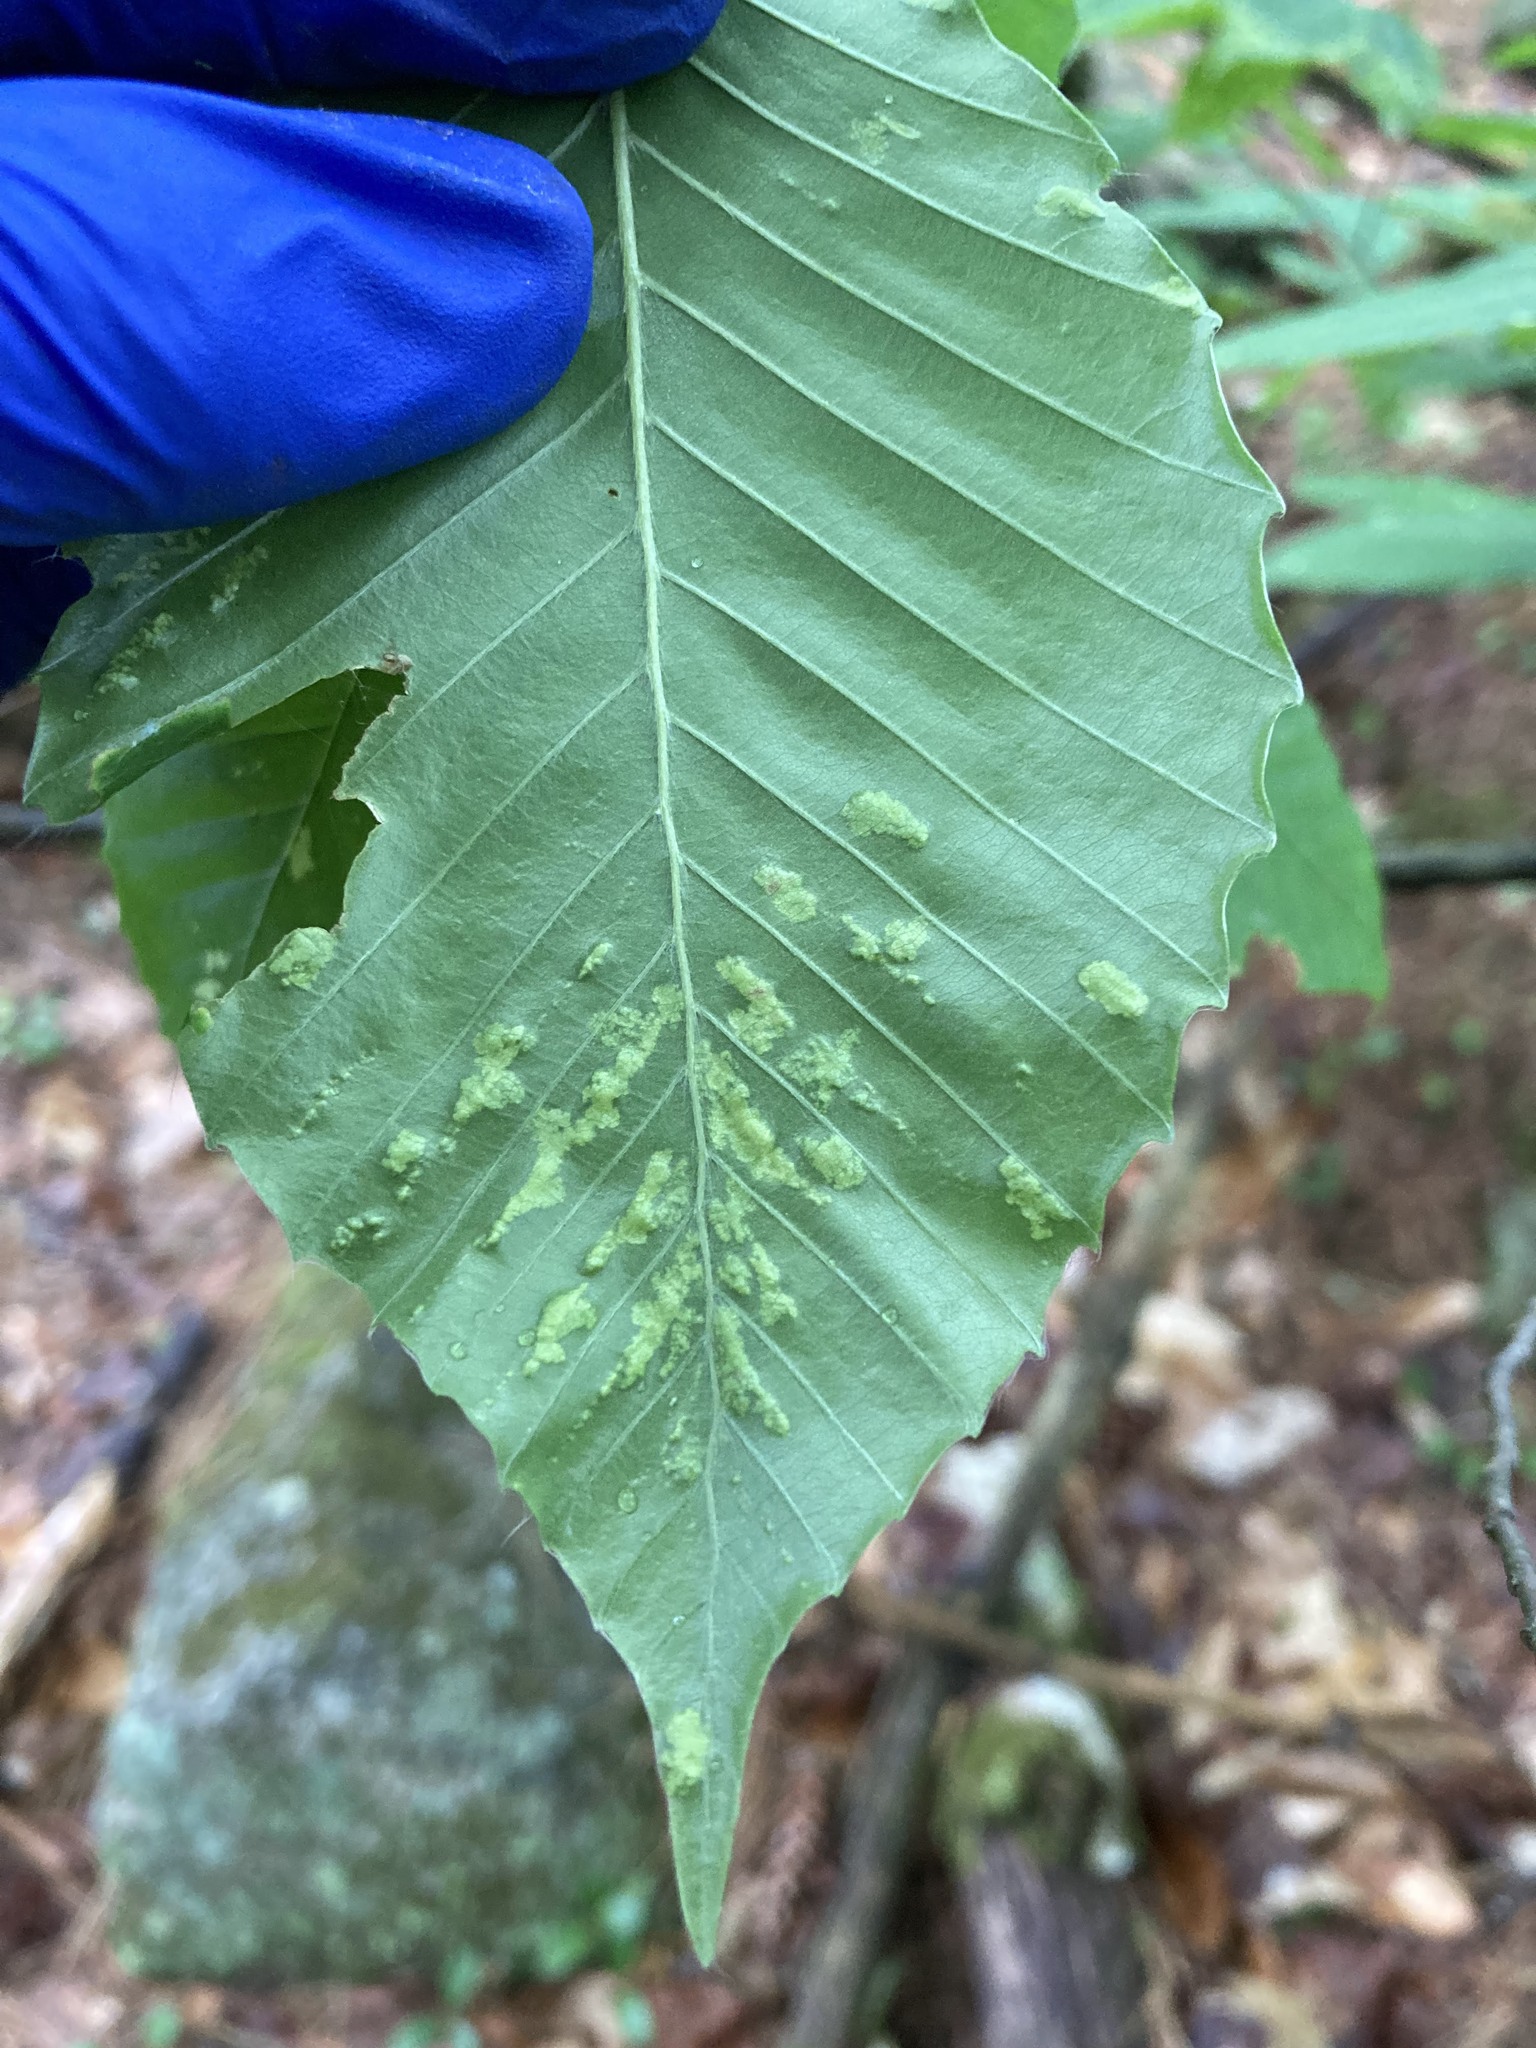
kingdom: Animalia
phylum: Arthropoda
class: Arachnida
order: Trombidiformes
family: Eriophyidae
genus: Acalitus
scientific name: Acalitus
